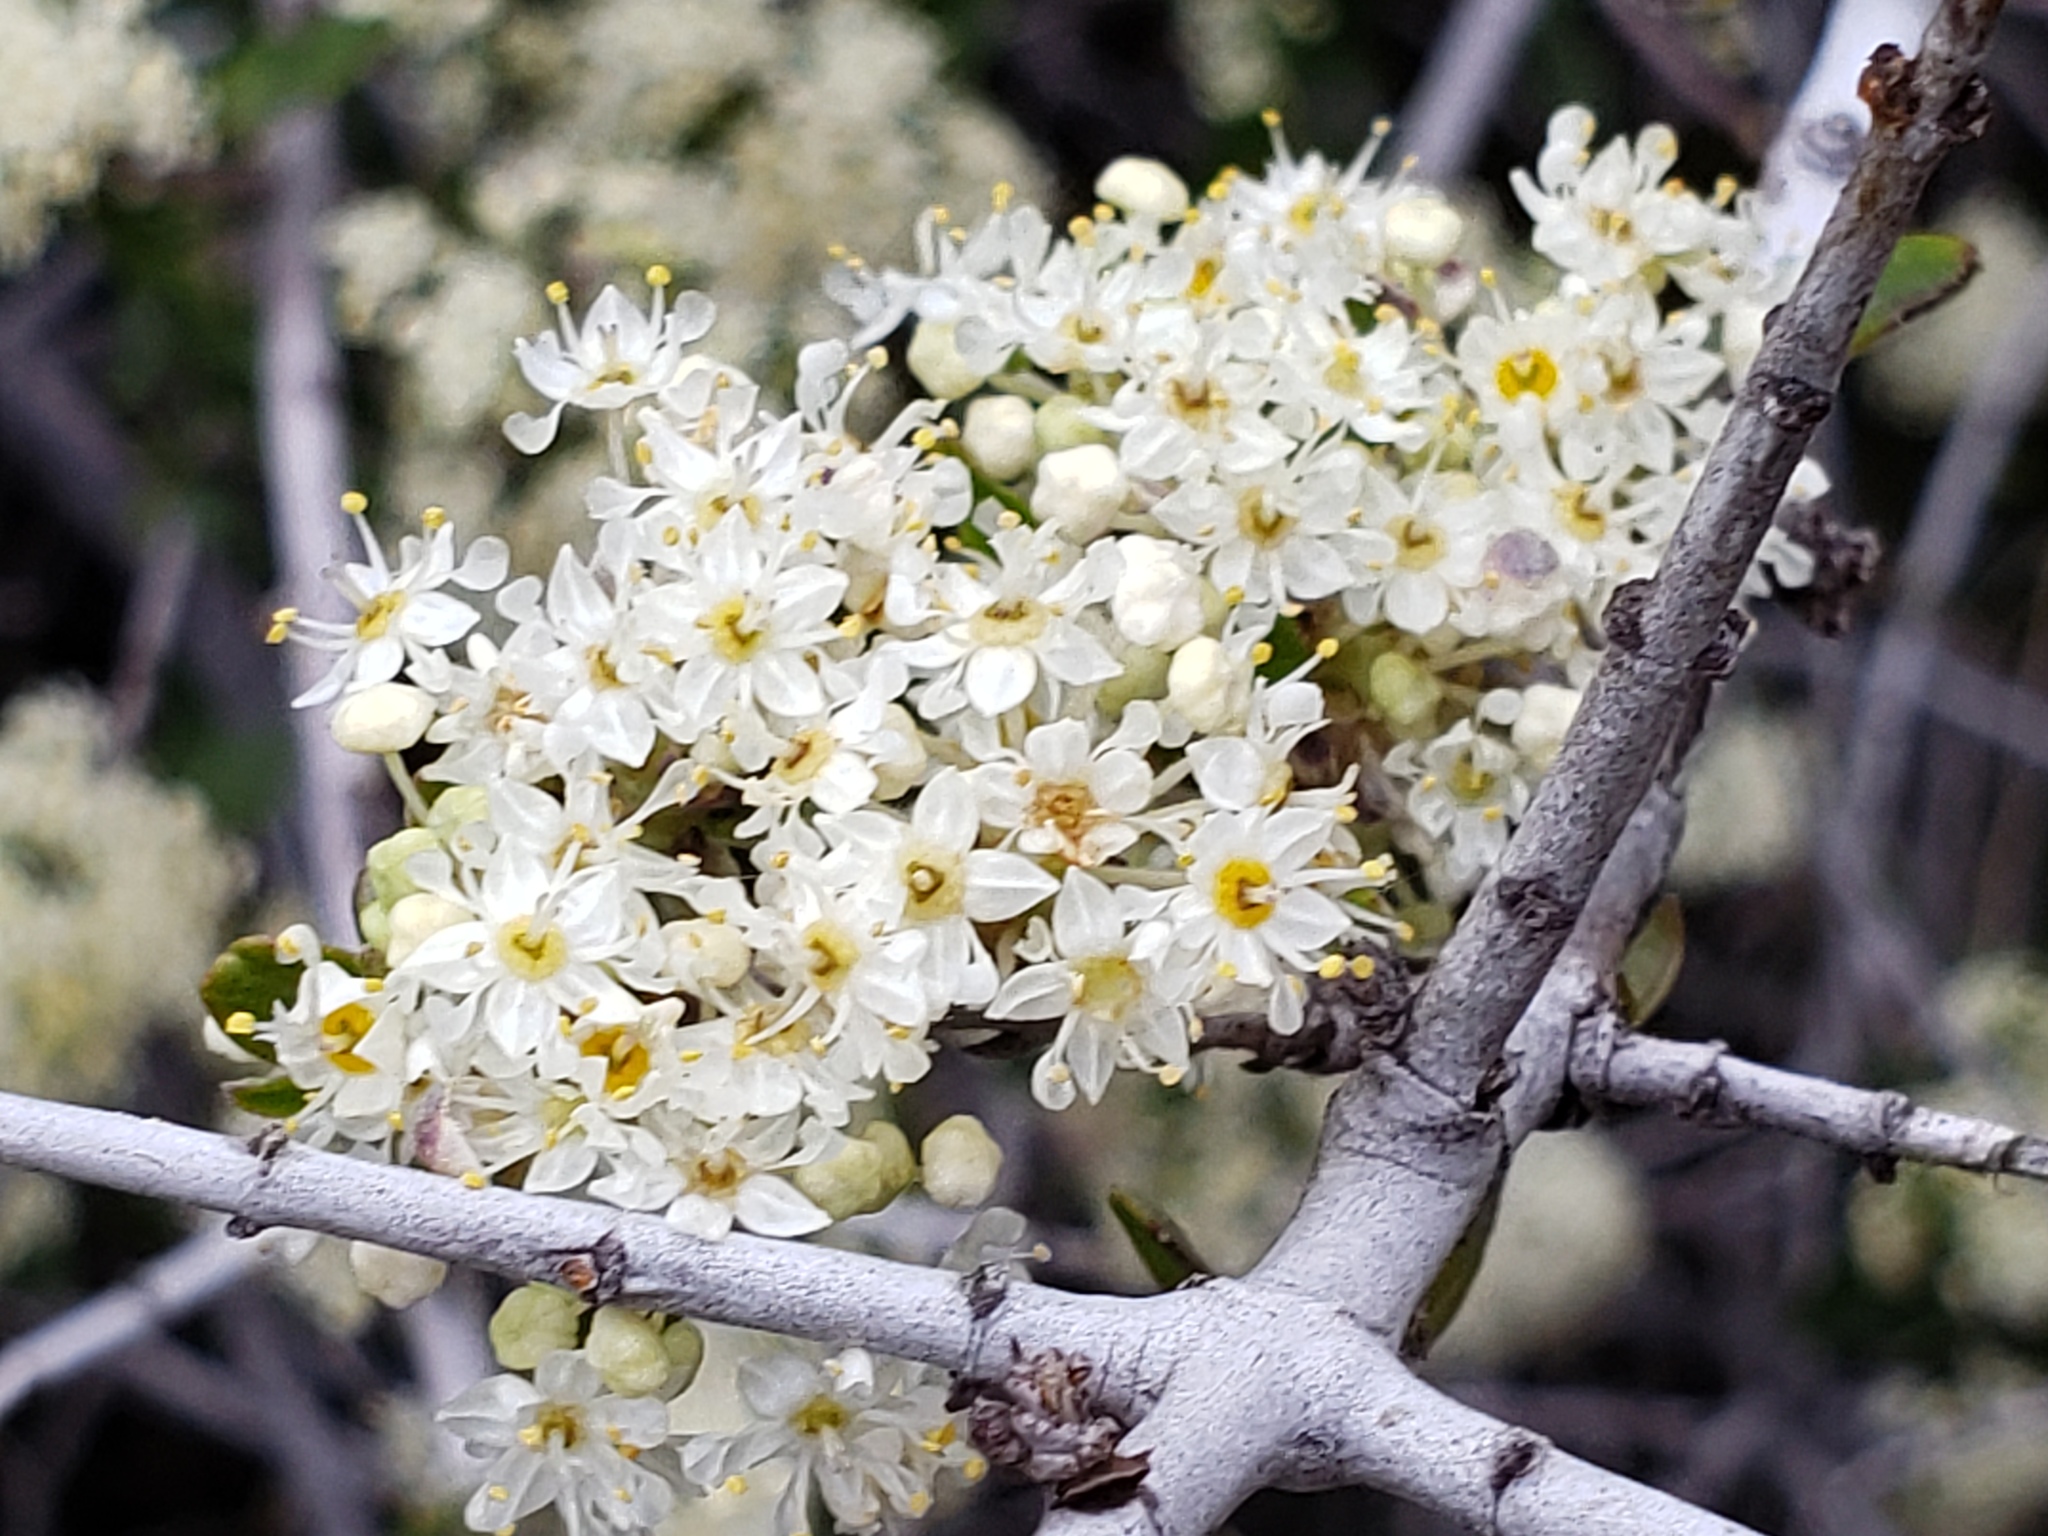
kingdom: Plantae
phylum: Tracheophyta
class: Magnoliopsida
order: Rosales
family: Rhamnaceae
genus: Ceanothus
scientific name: Ceanothus cuneatus
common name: Cuneate ceanothus
